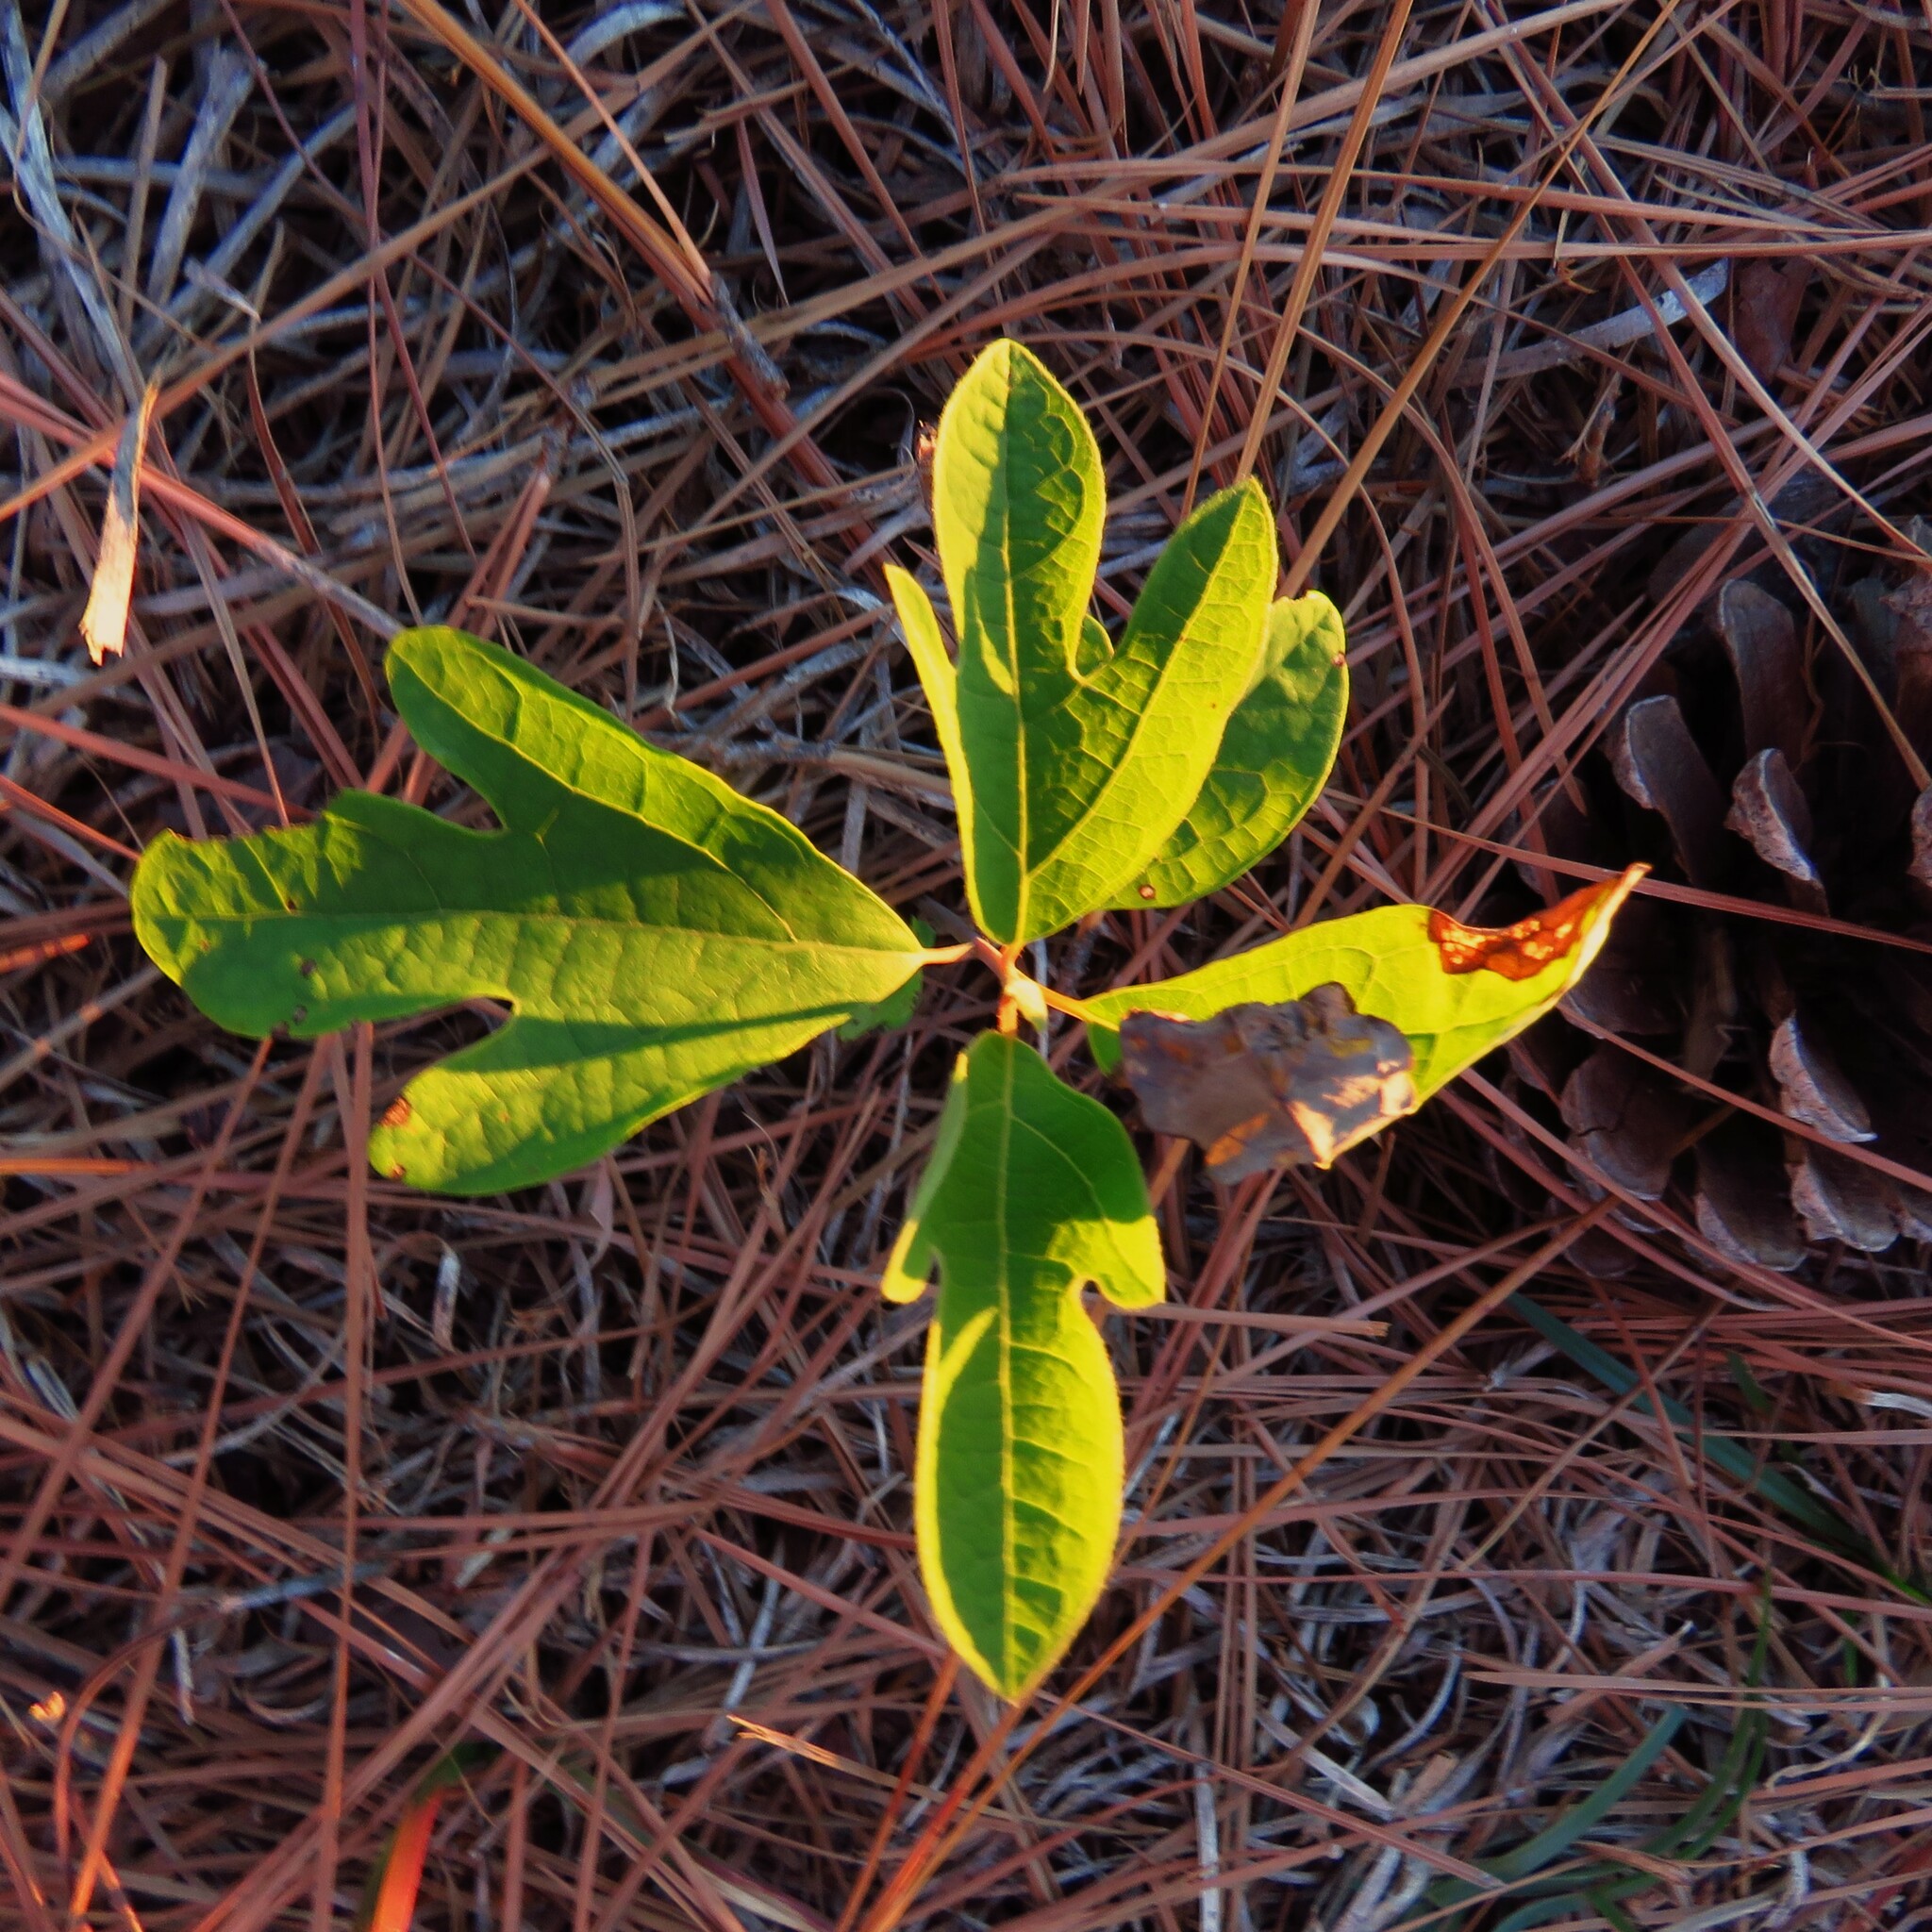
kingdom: Plantae
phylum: Tracheophyta
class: Magnoliopsida
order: Laurales
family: Lauraceae
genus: Sassafras
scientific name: Sassafras albidum
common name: Sassafras
